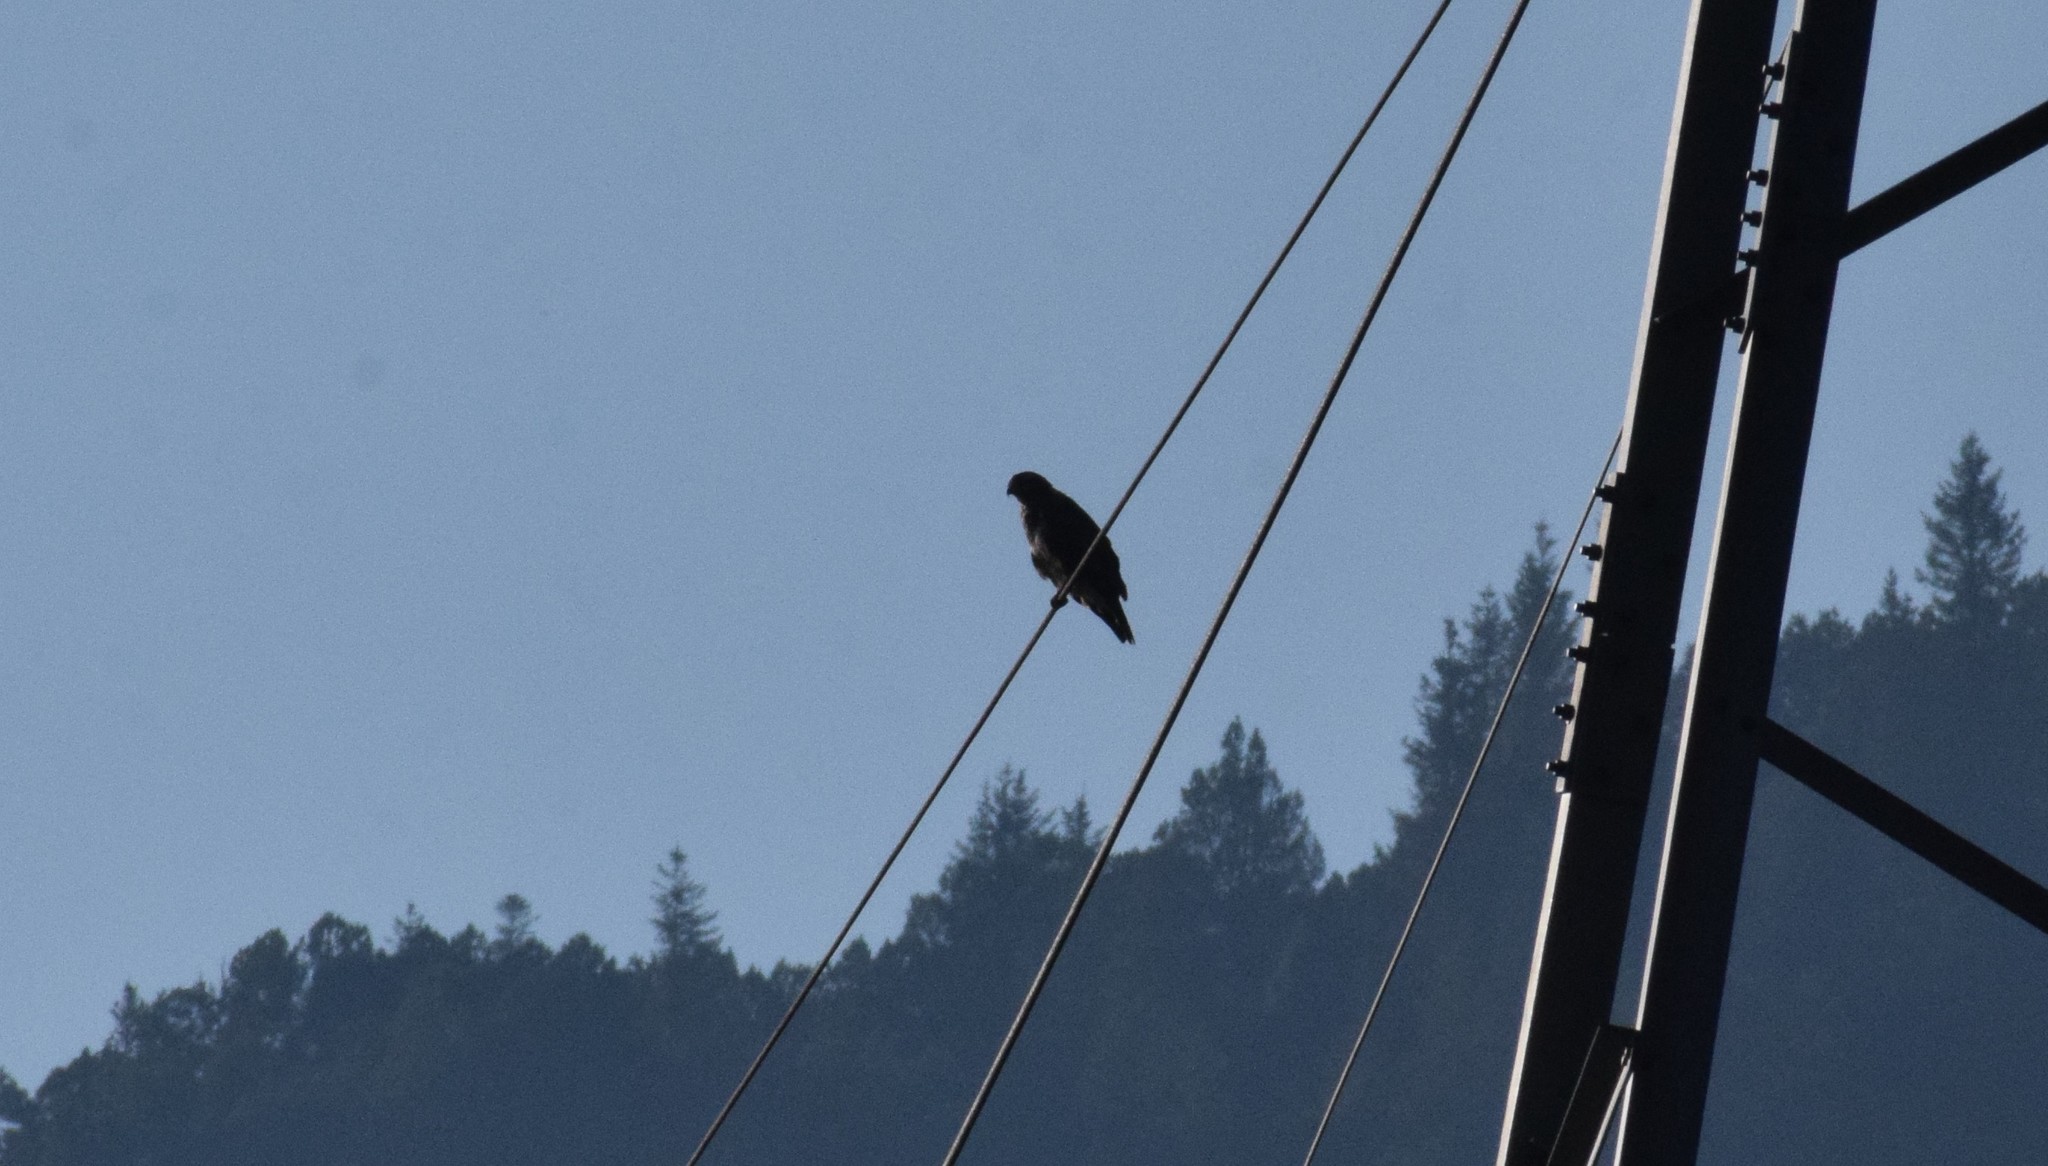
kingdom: Animalia
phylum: Chordata
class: Aves
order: Accipitriformes
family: Accipitridae
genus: Buteo
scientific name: Buteo buteo
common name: Common buzzard
